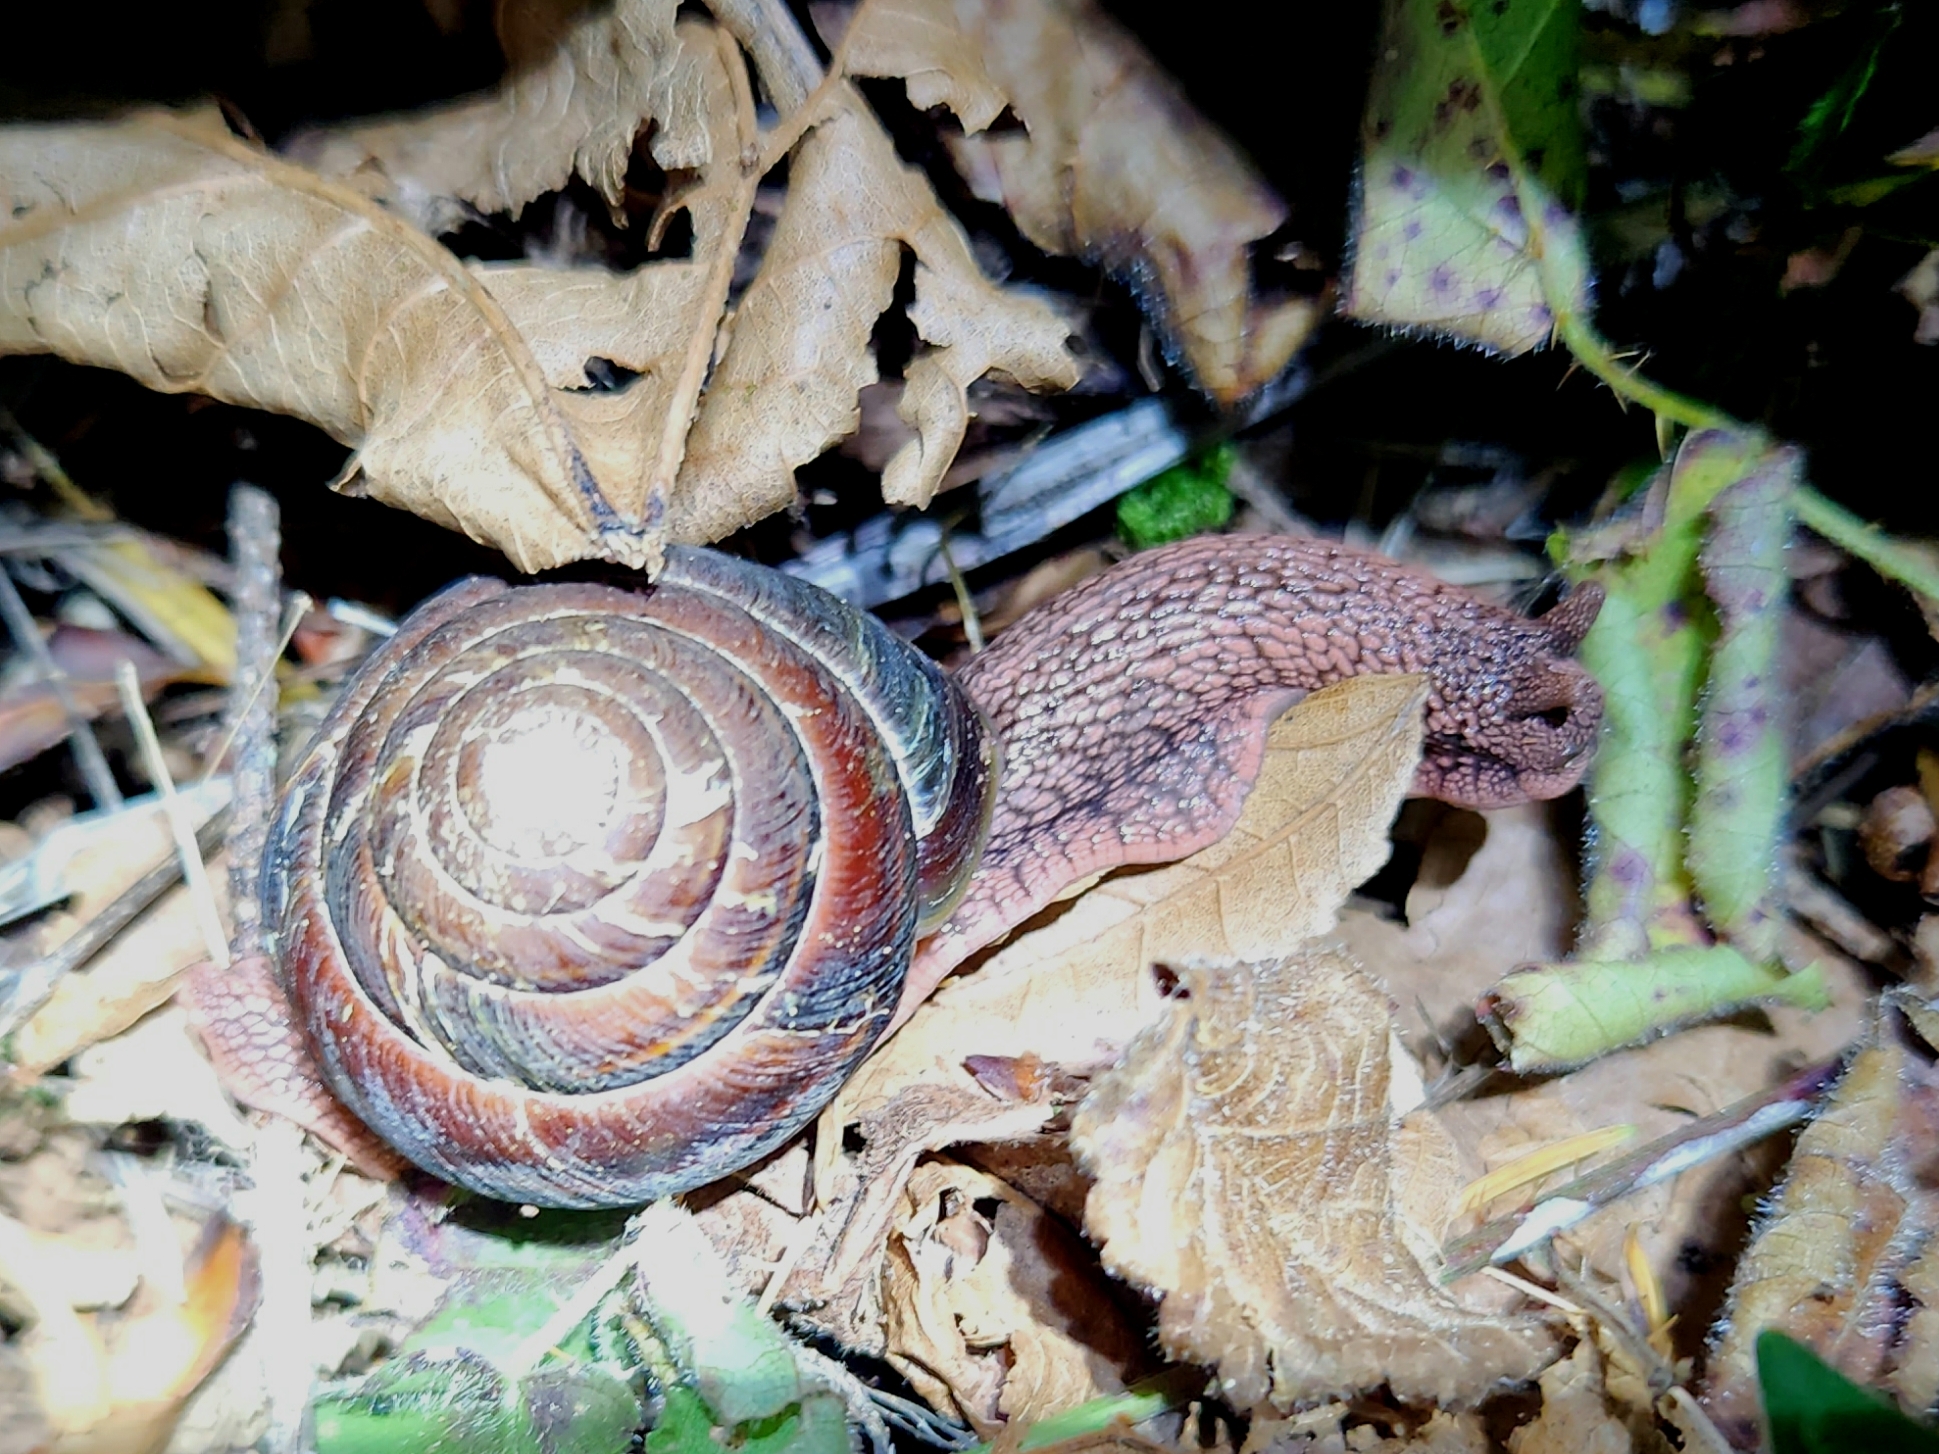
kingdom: Animalia
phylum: Mollusca
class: Gastropoda
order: Stylommatophora
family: Xanthonychidae
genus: Monadenia
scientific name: Monadenia fidelis
